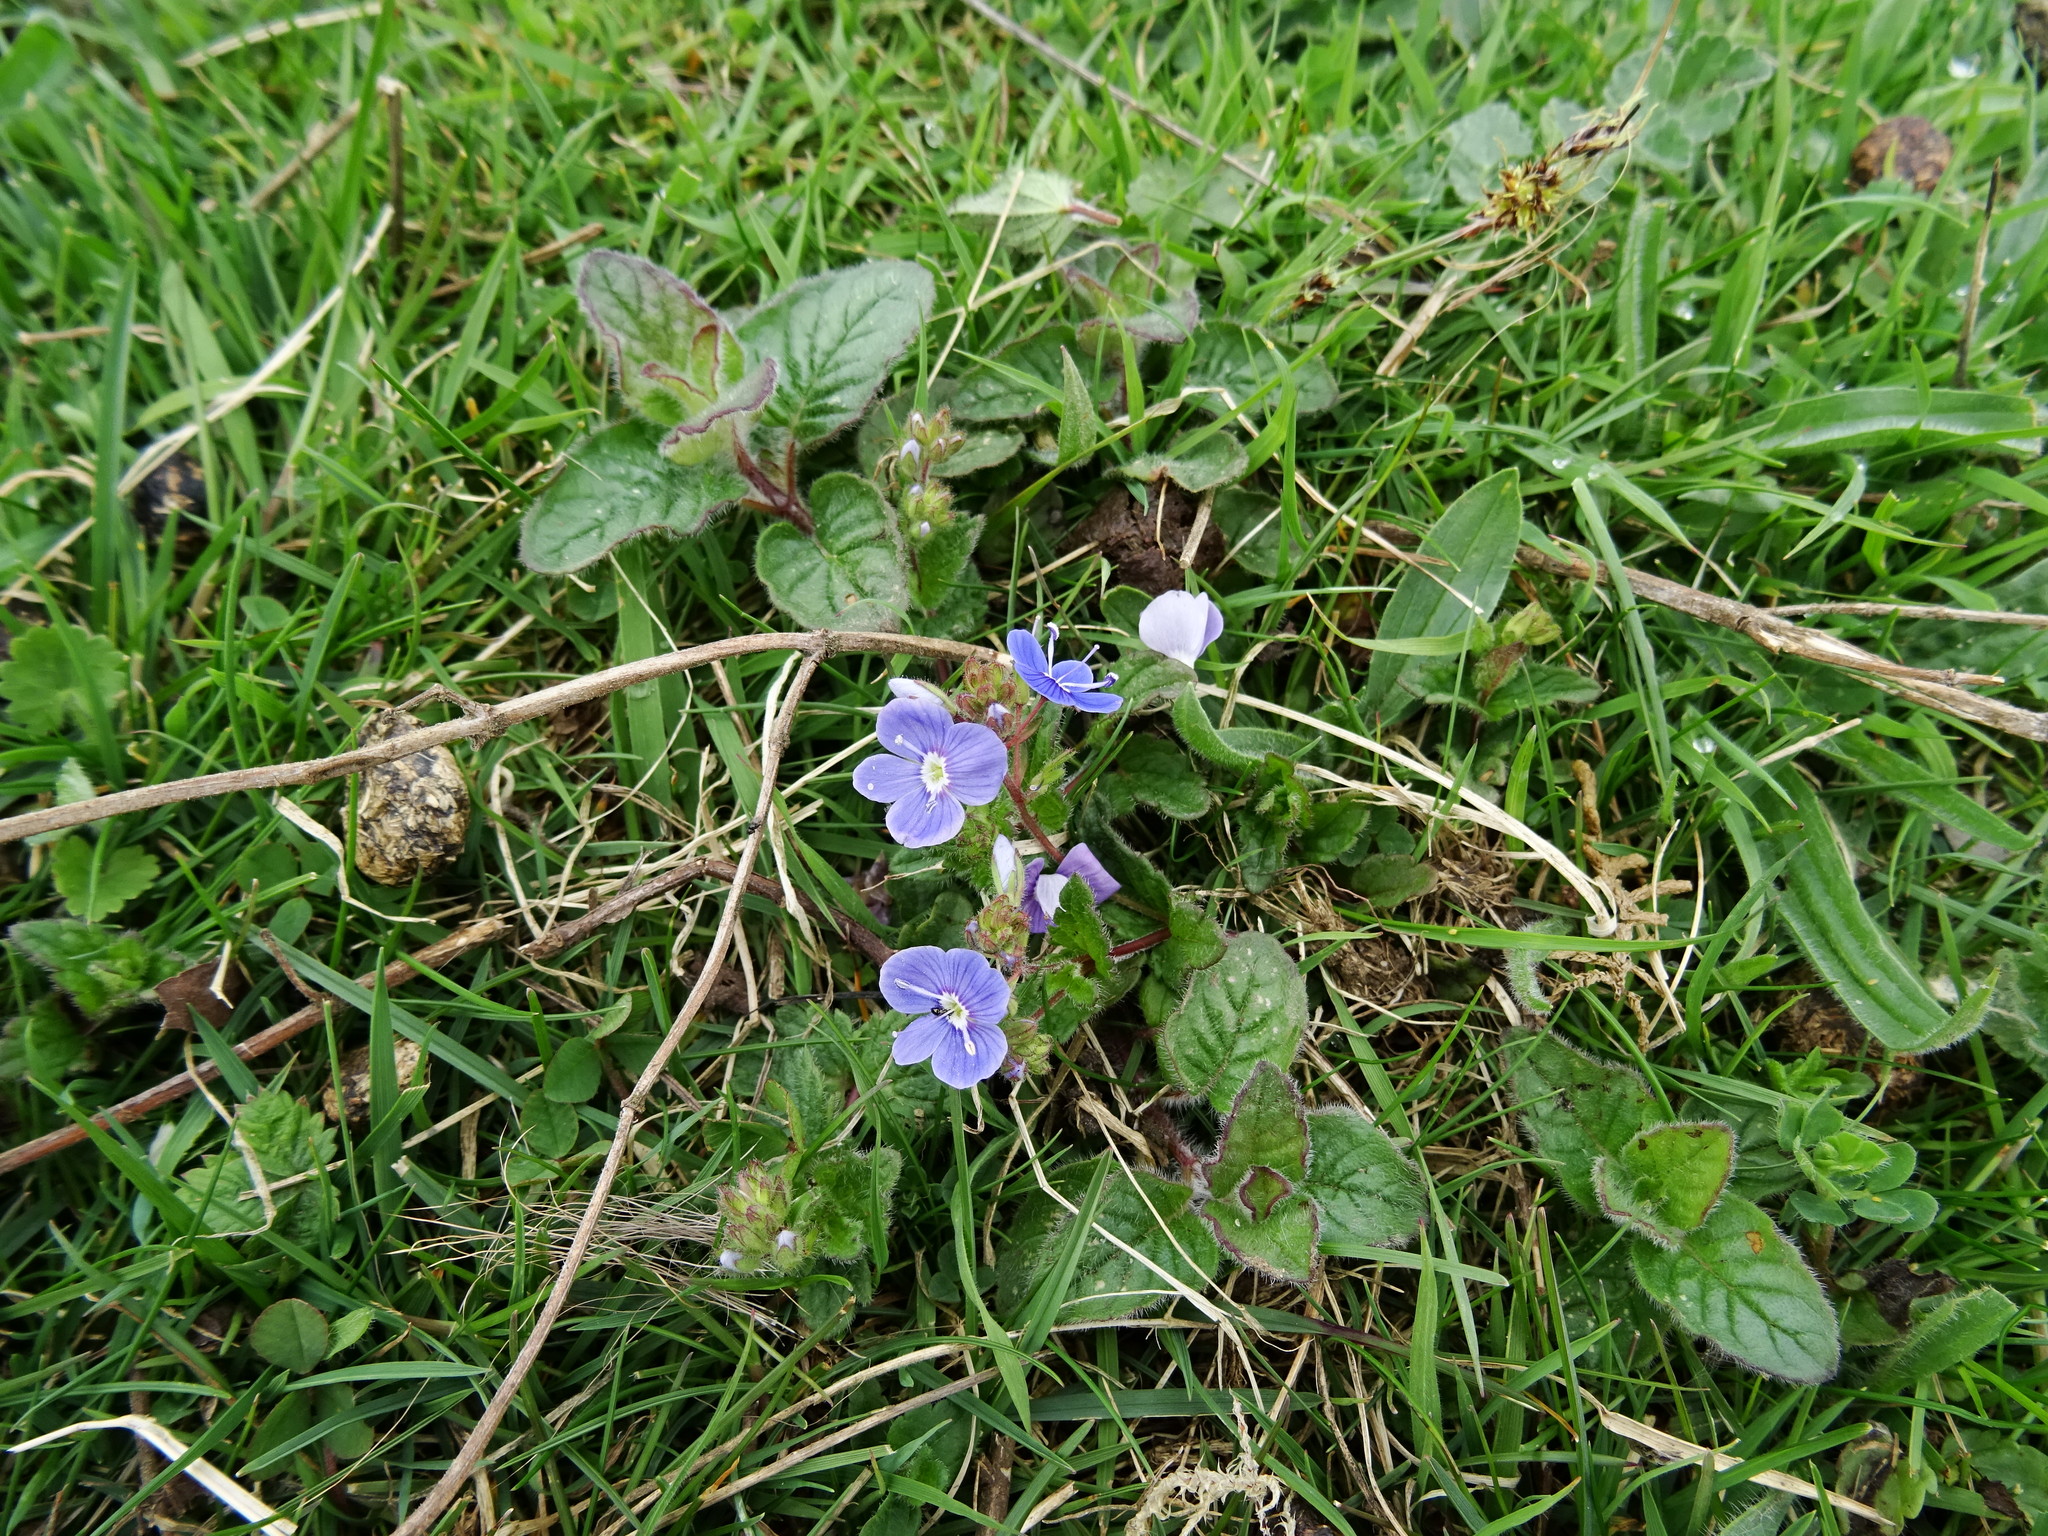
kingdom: Plantae
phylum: Tracheophyta
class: Magnoliopsida
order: Lamiales
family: Plantaginaceae
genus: Veronica
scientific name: Veronica chamaedrys
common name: Germander speedwell
